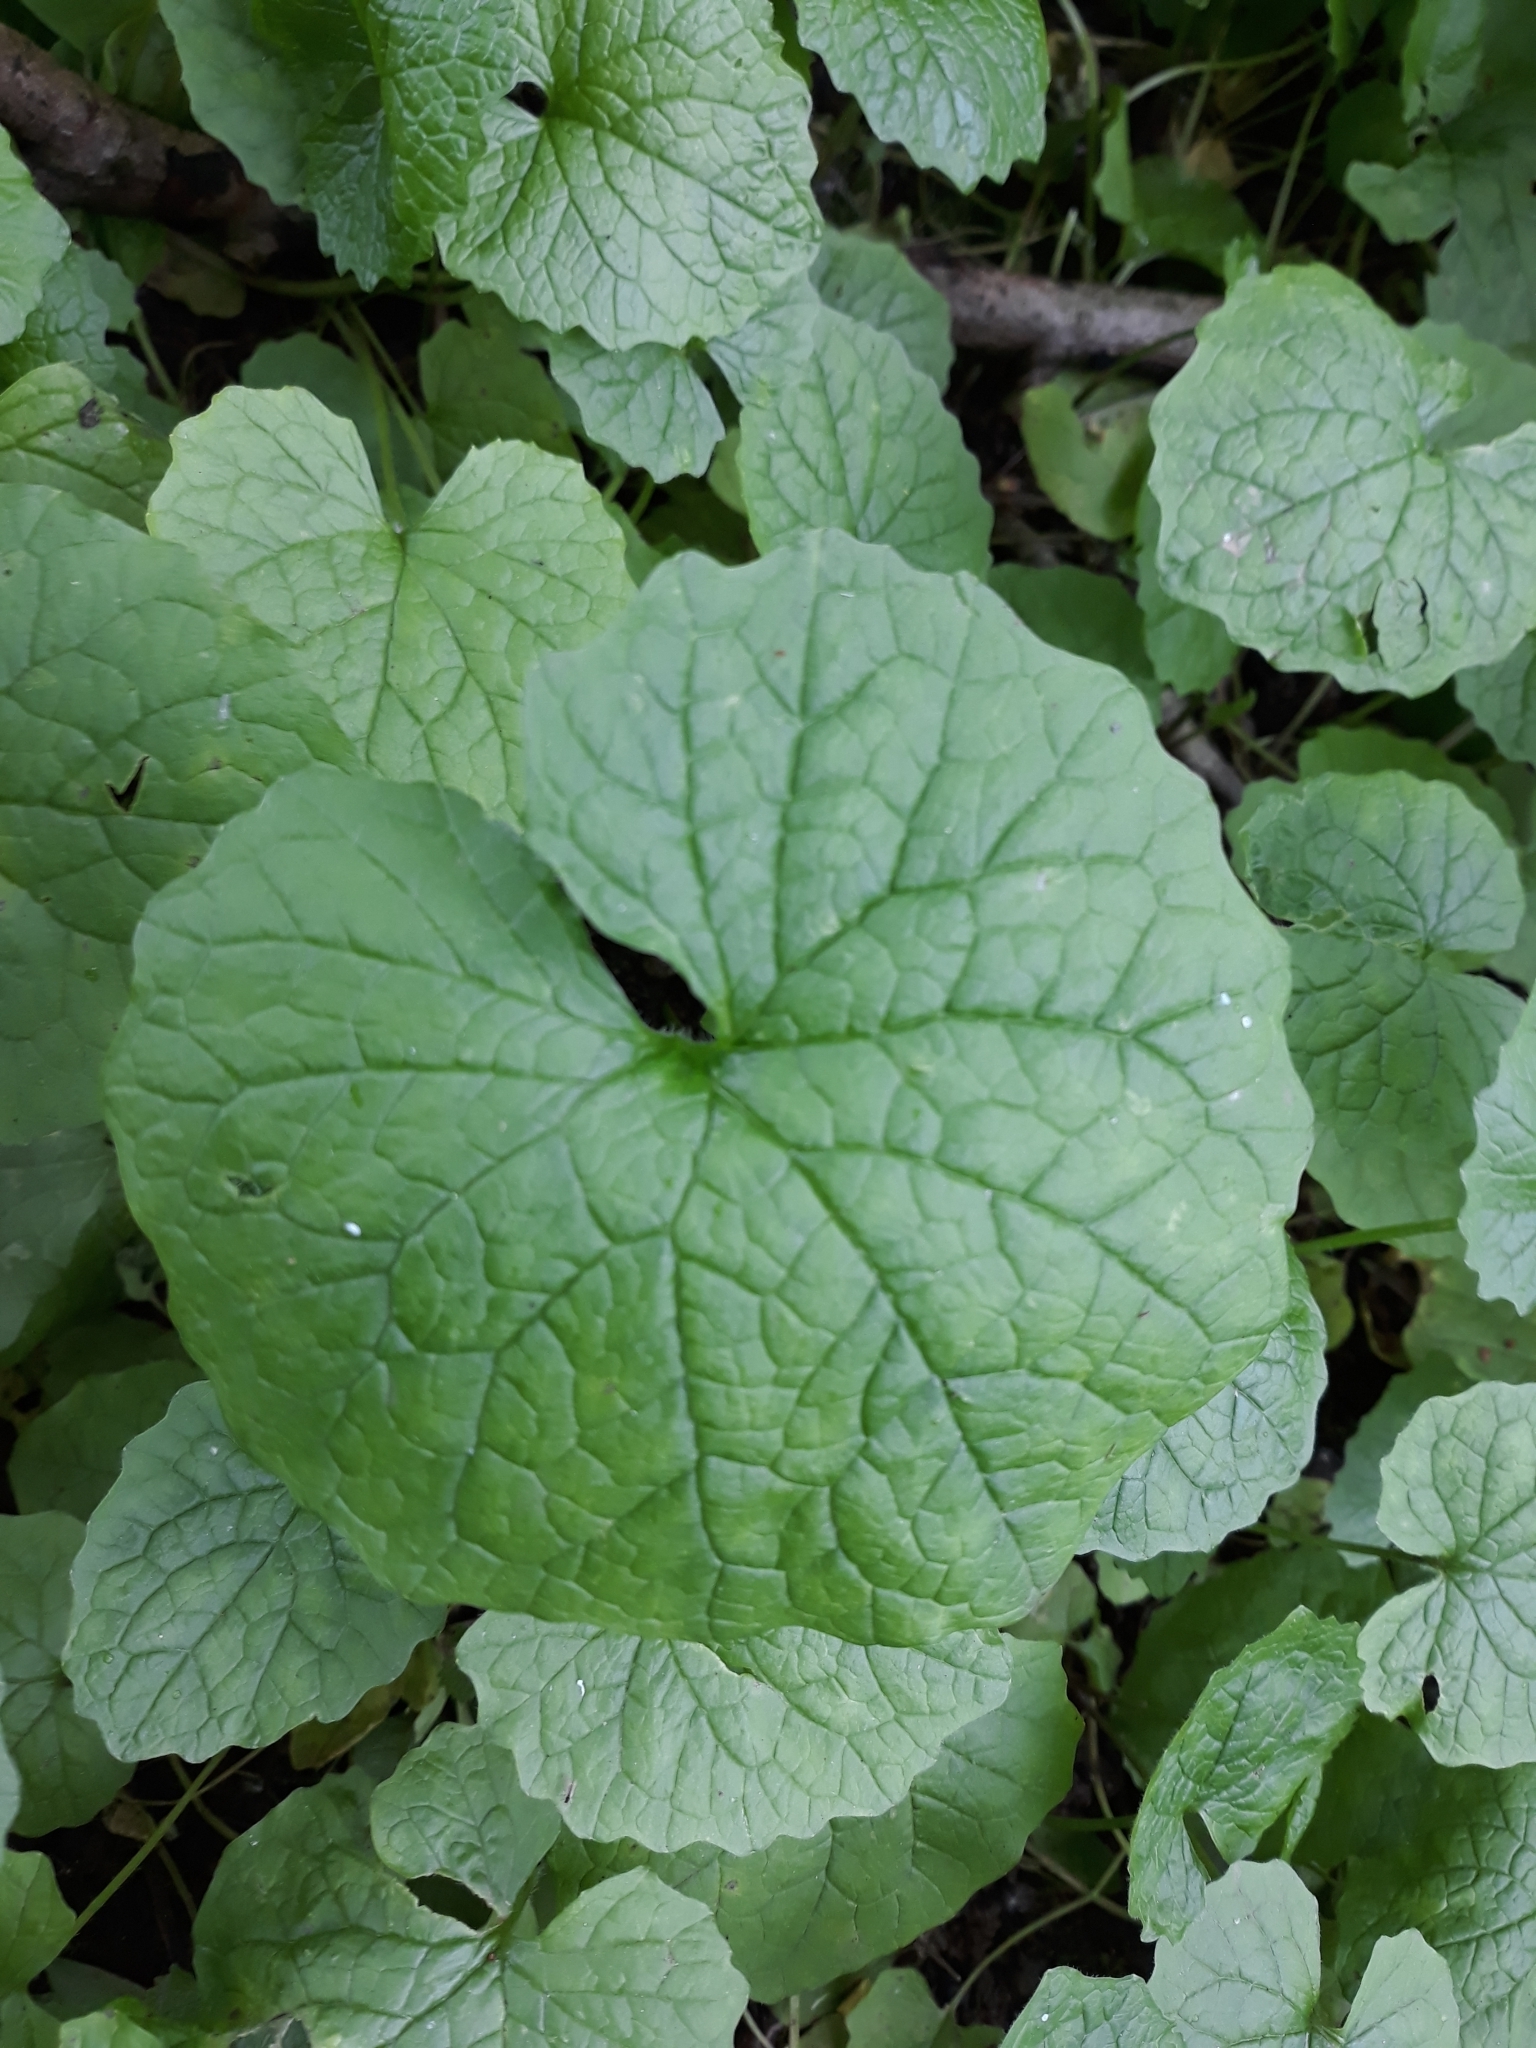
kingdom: Plantae
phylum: Tracheophyta
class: Magnoliopsida
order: Brassicales
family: Brassicaceae
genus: Alliaria
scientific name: Alliaria petiolata
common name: Garlic mustard
